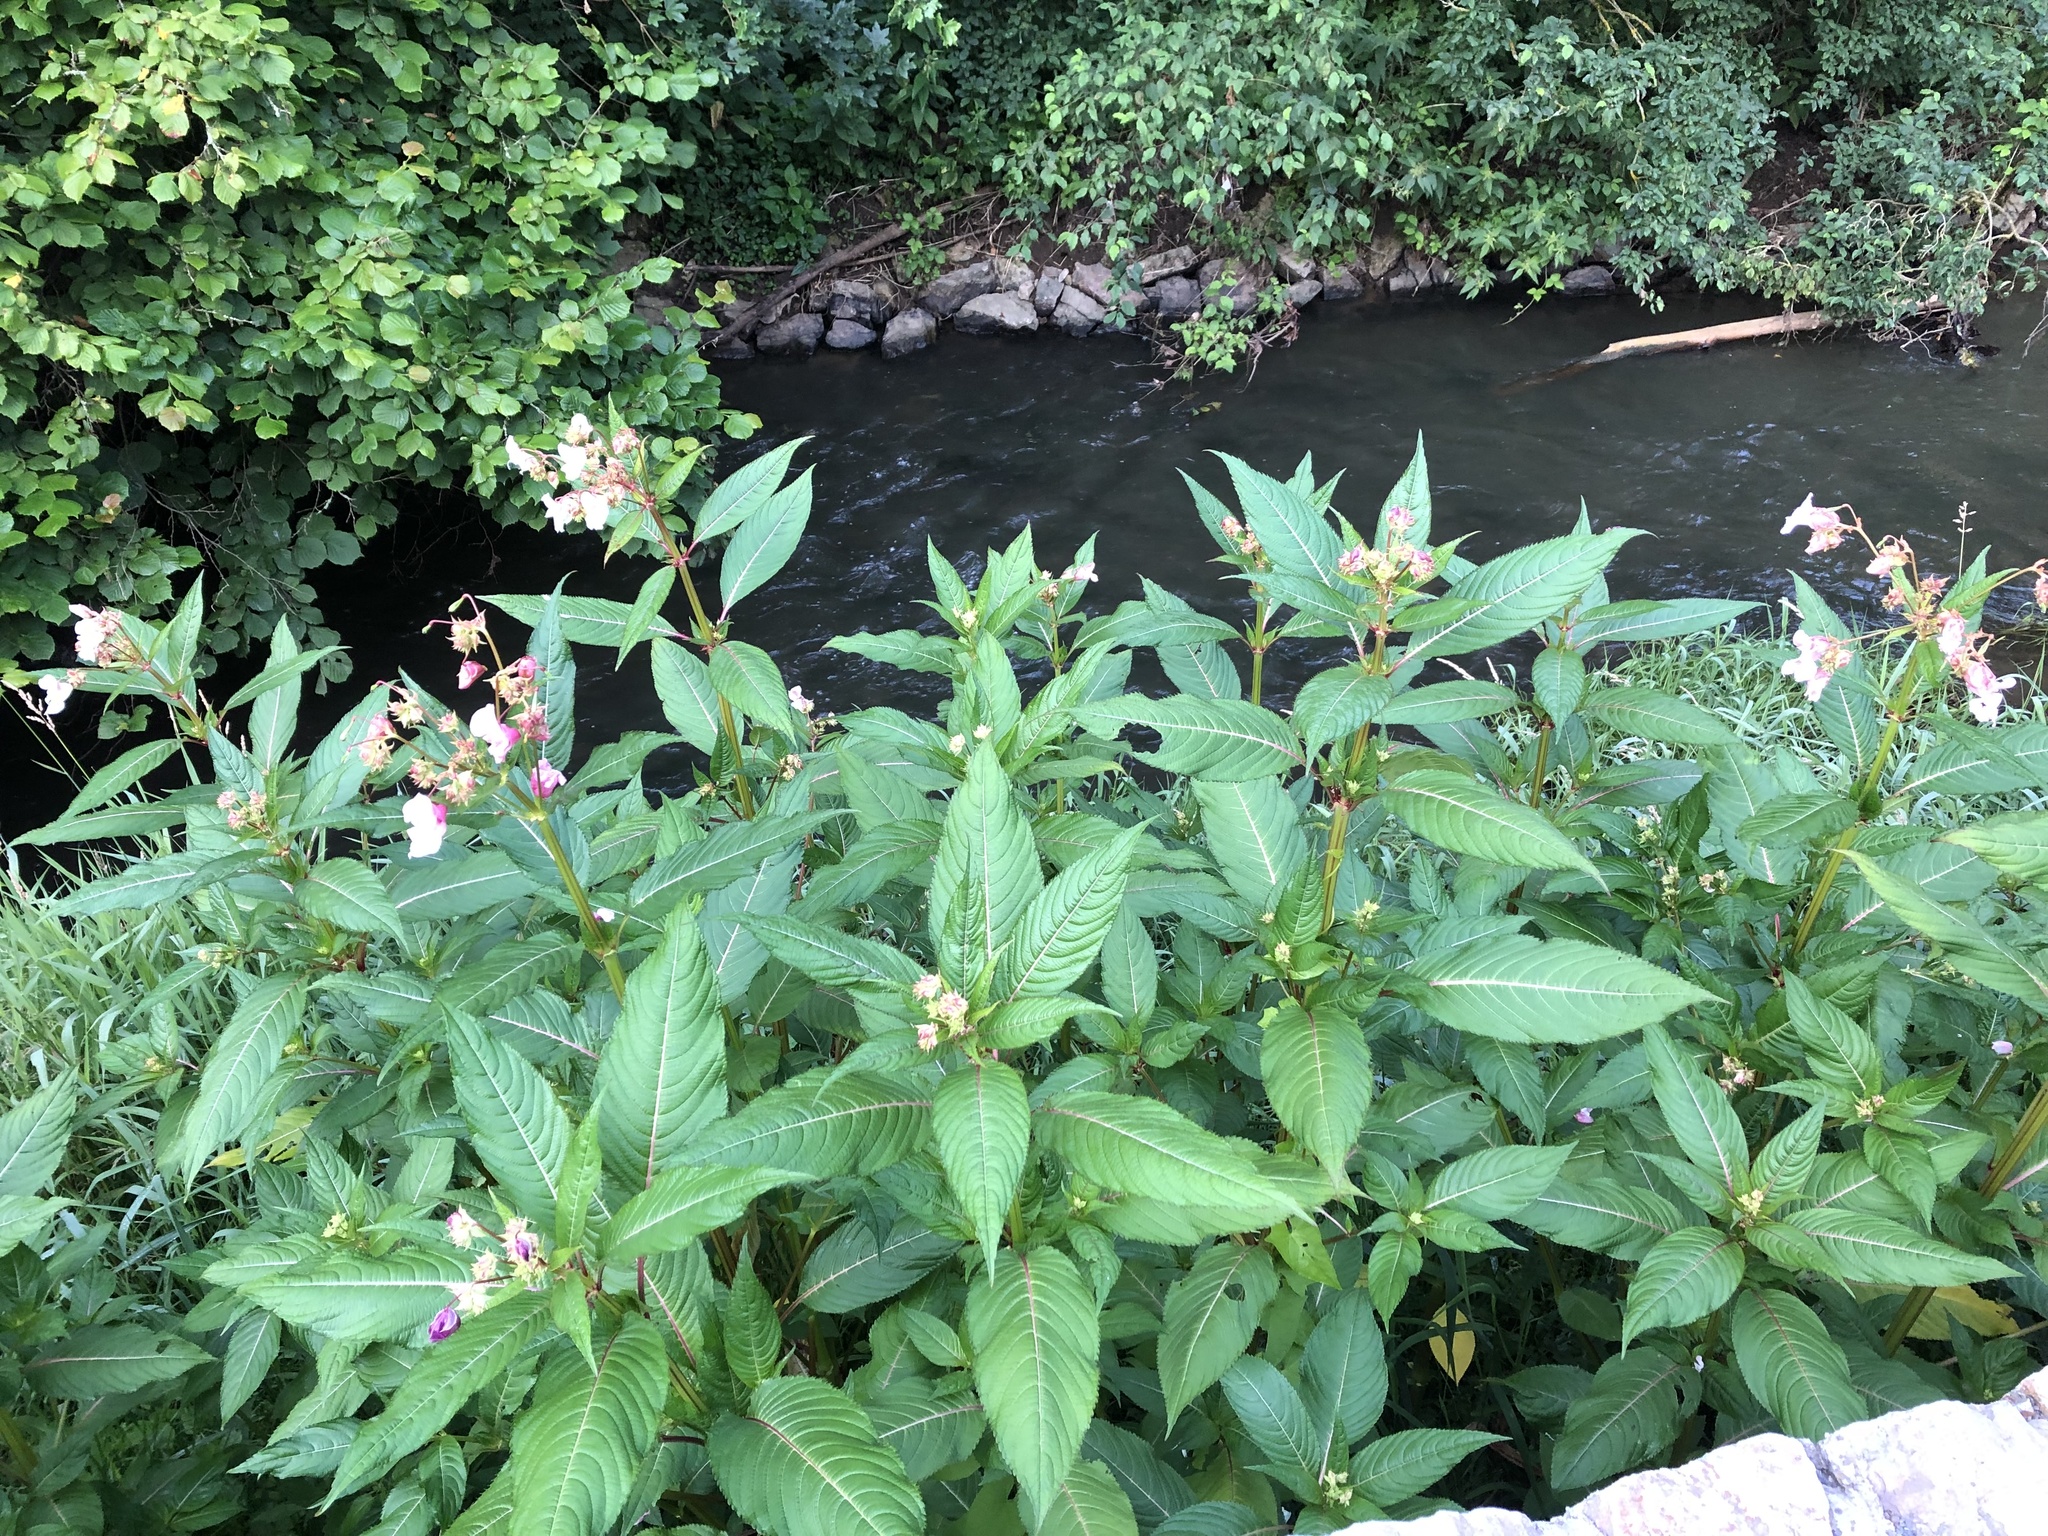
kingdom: Plantae
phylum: Tracheophyta
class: Magnoliopsida
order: Ericales
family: Balsaminaceae
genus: Impatiens
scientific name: Impatiens glandulifera
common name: Himalayan balsam
